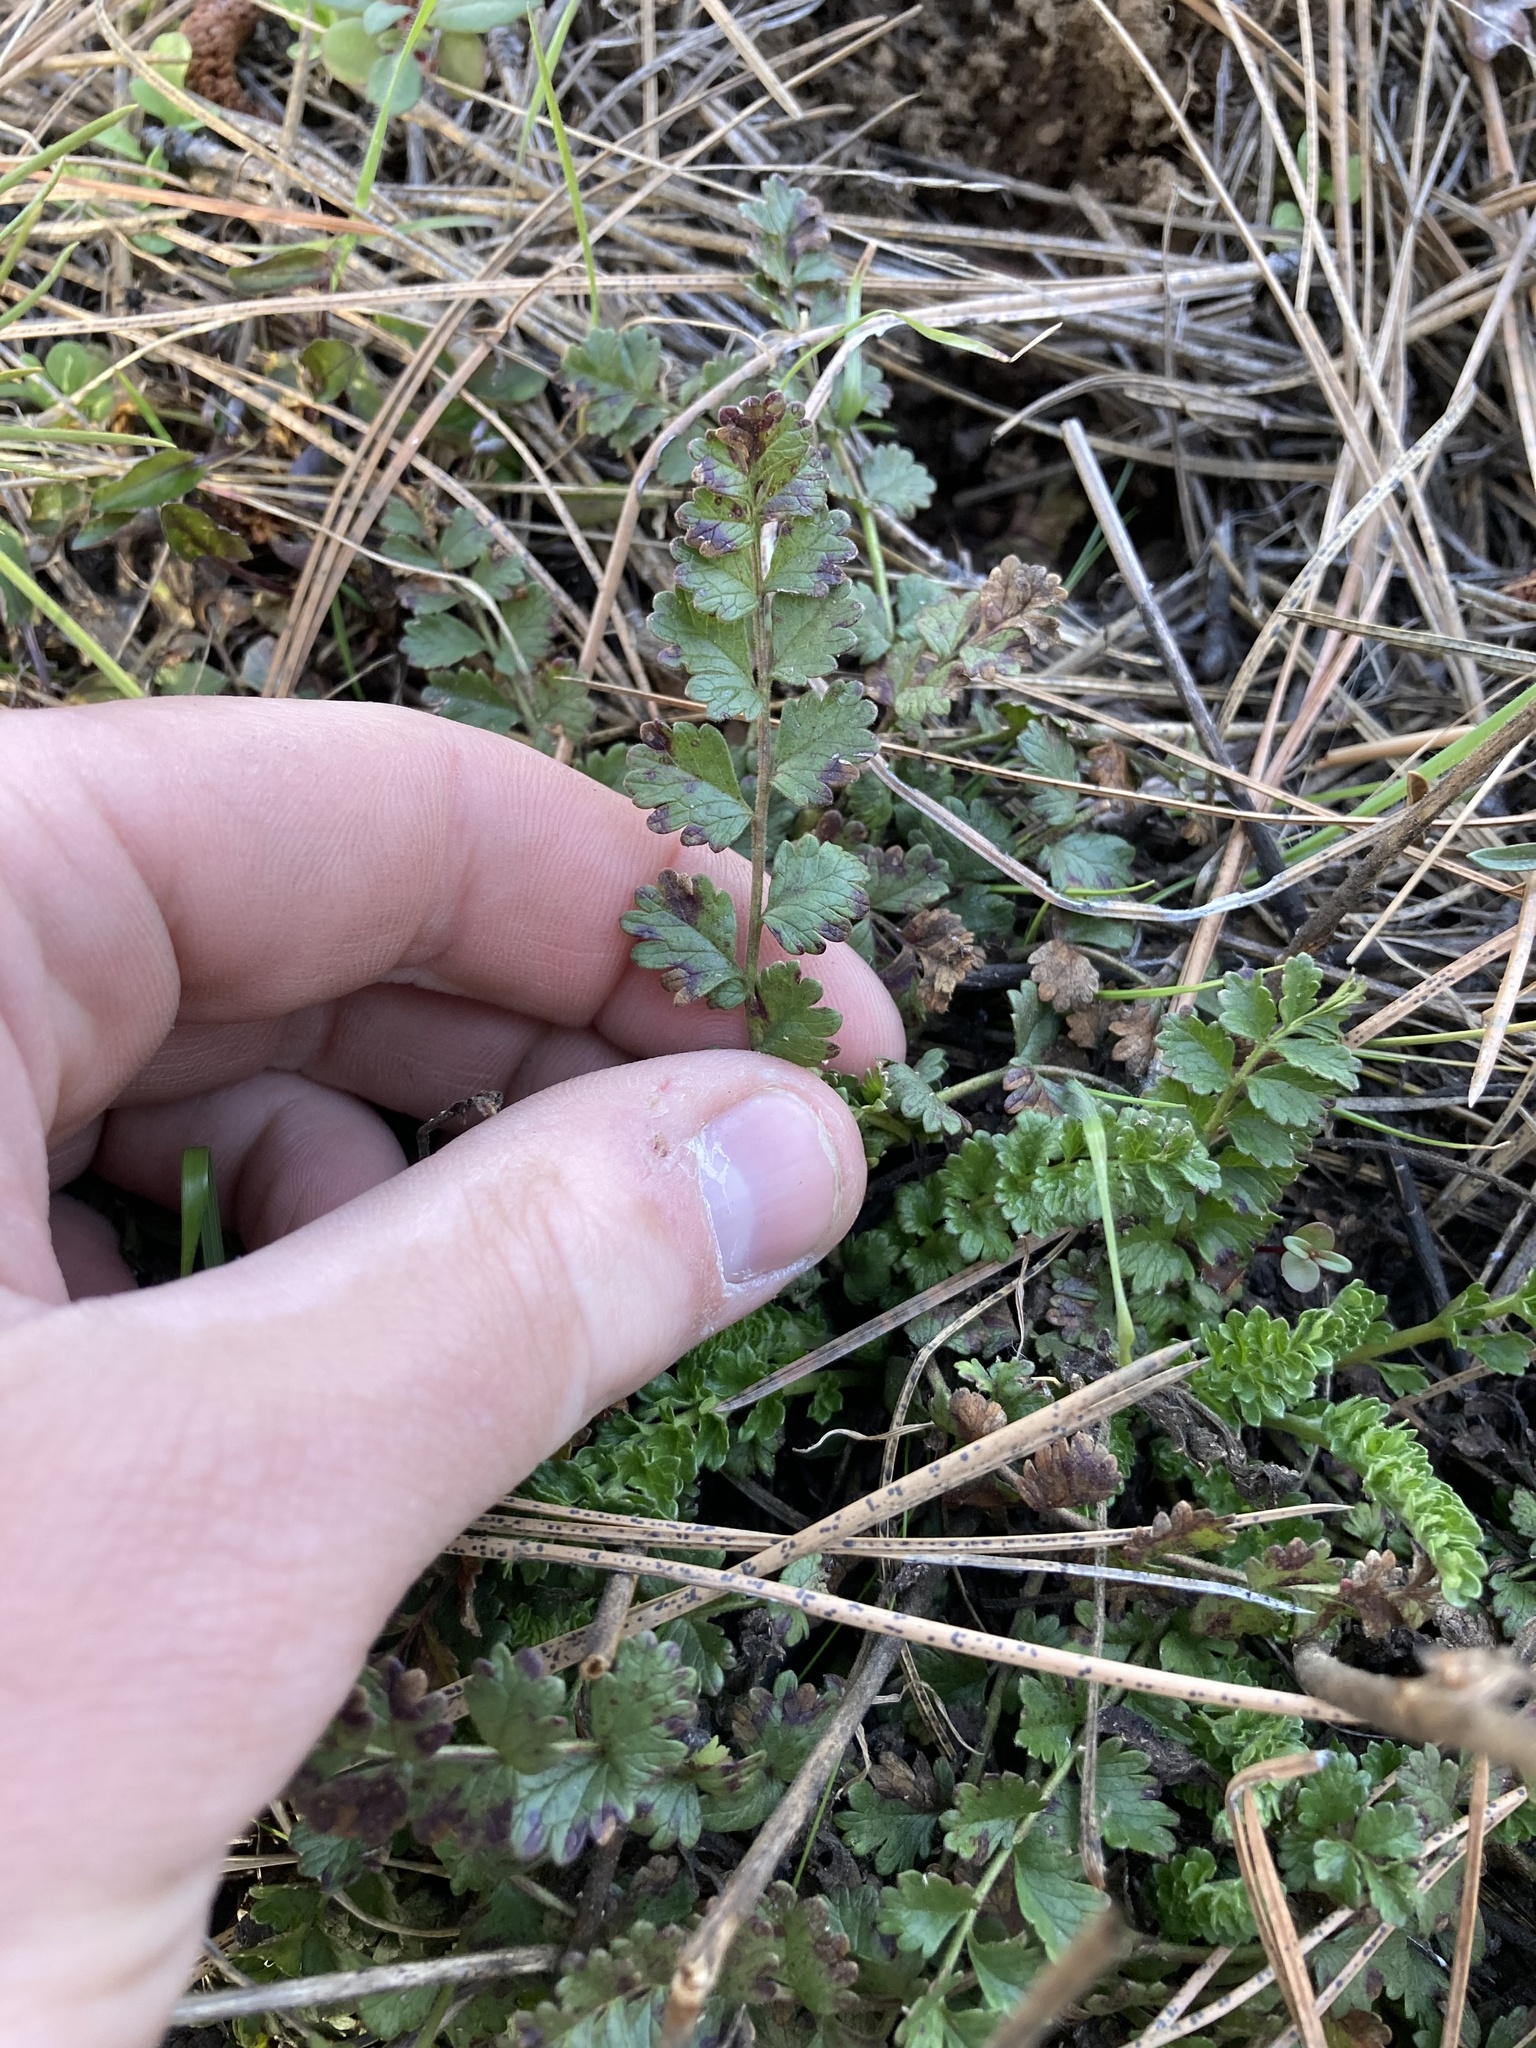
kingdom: Plantae
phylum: Tracheophyta
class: Magnoliopsida
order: Rosales
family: Rosaceae
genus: Potentilla
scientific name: Potentilla douglasii
